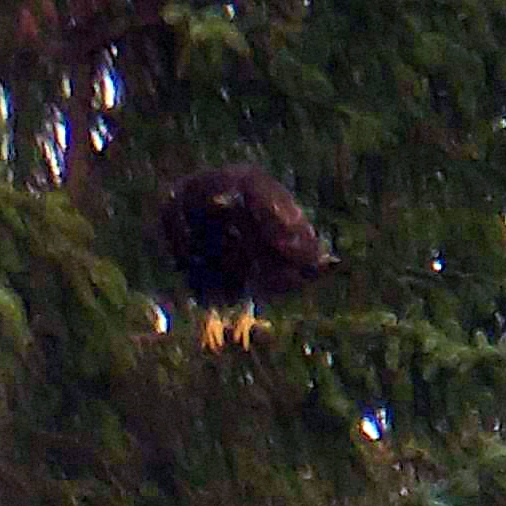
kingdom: Animalia
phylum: Chordata
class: Aves
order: Accipitriformes
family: Accipitridae
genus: Haliaeetus
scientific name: Haliaeetus albicilla
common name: White-tailed eagle
